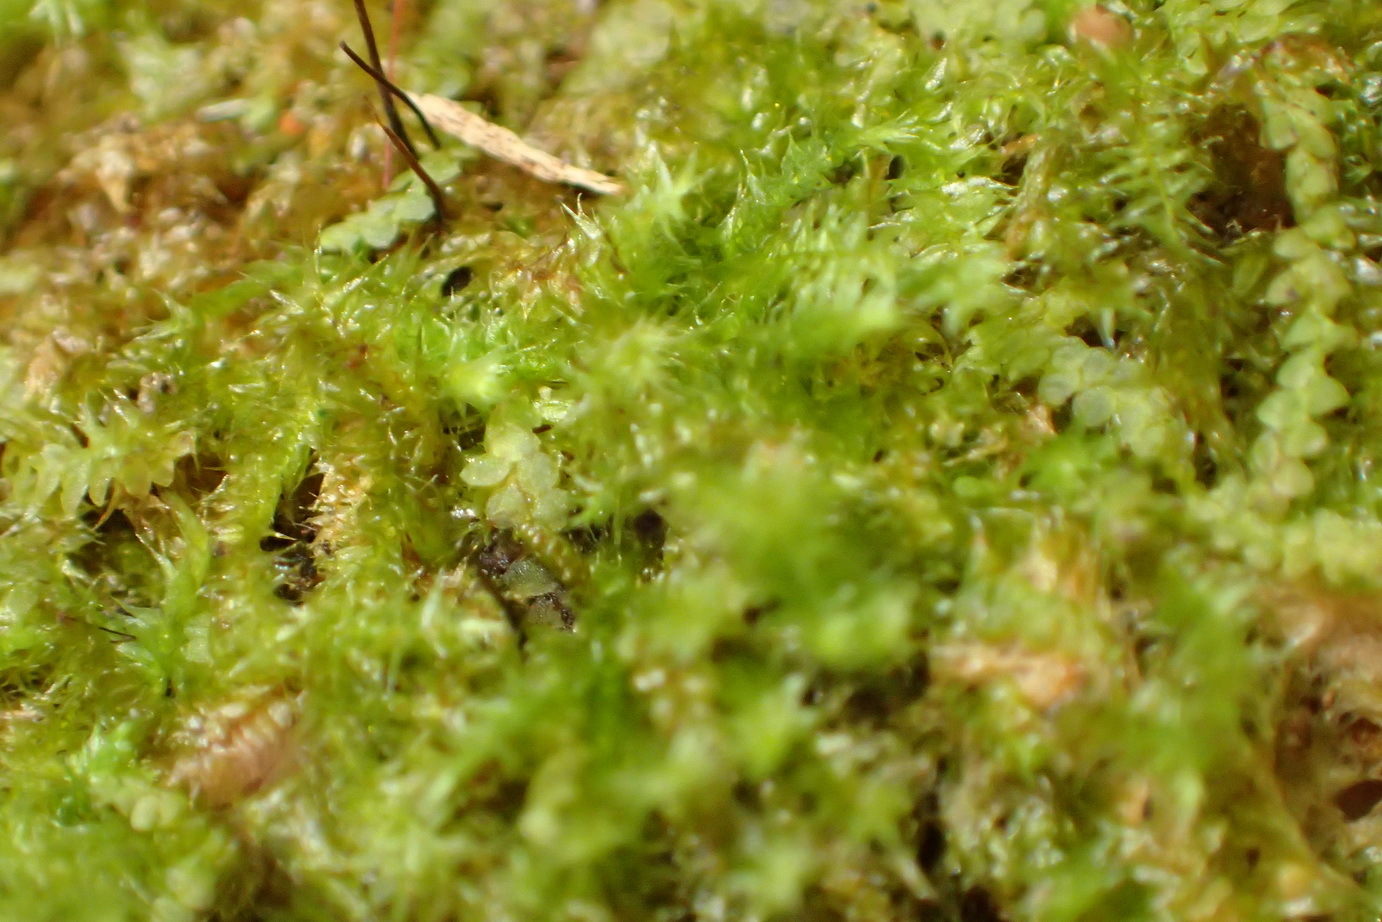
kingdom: Plantae
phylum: Bryophyta
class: Bryopsida
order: Hypnales
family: Hypnaceae
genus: Chryso-hypnum
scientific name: Chryso-hypnum patens
